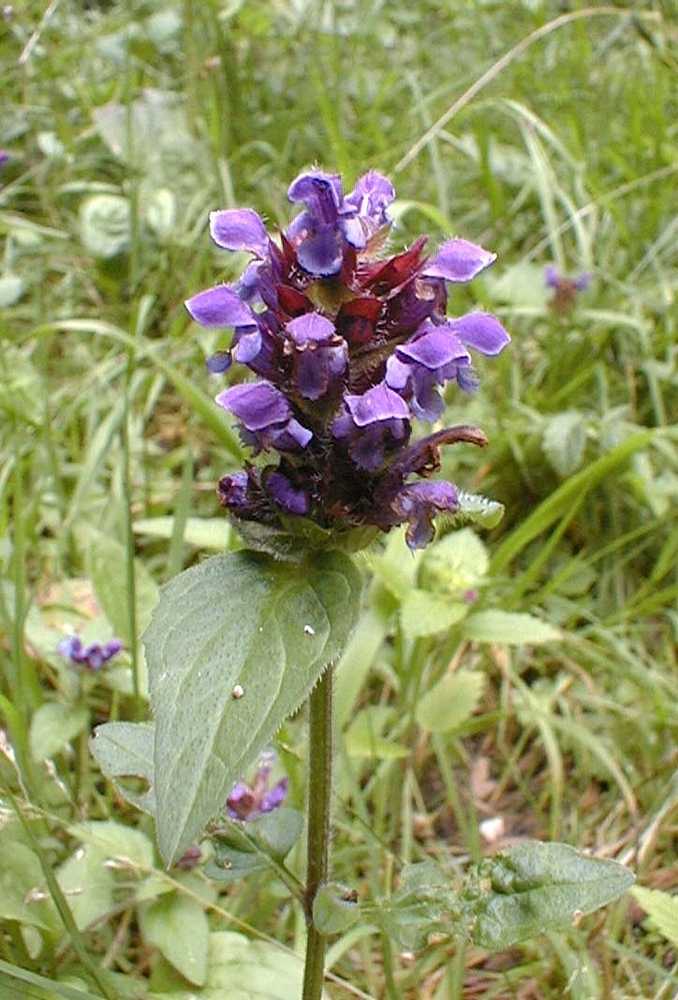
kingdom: Plantae
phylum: Tracheophyta
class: Magnoliopsida
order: Lamiales
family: Lamiaceae
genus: Prunella
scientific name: Prunella vulgaris
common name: Heal-all
